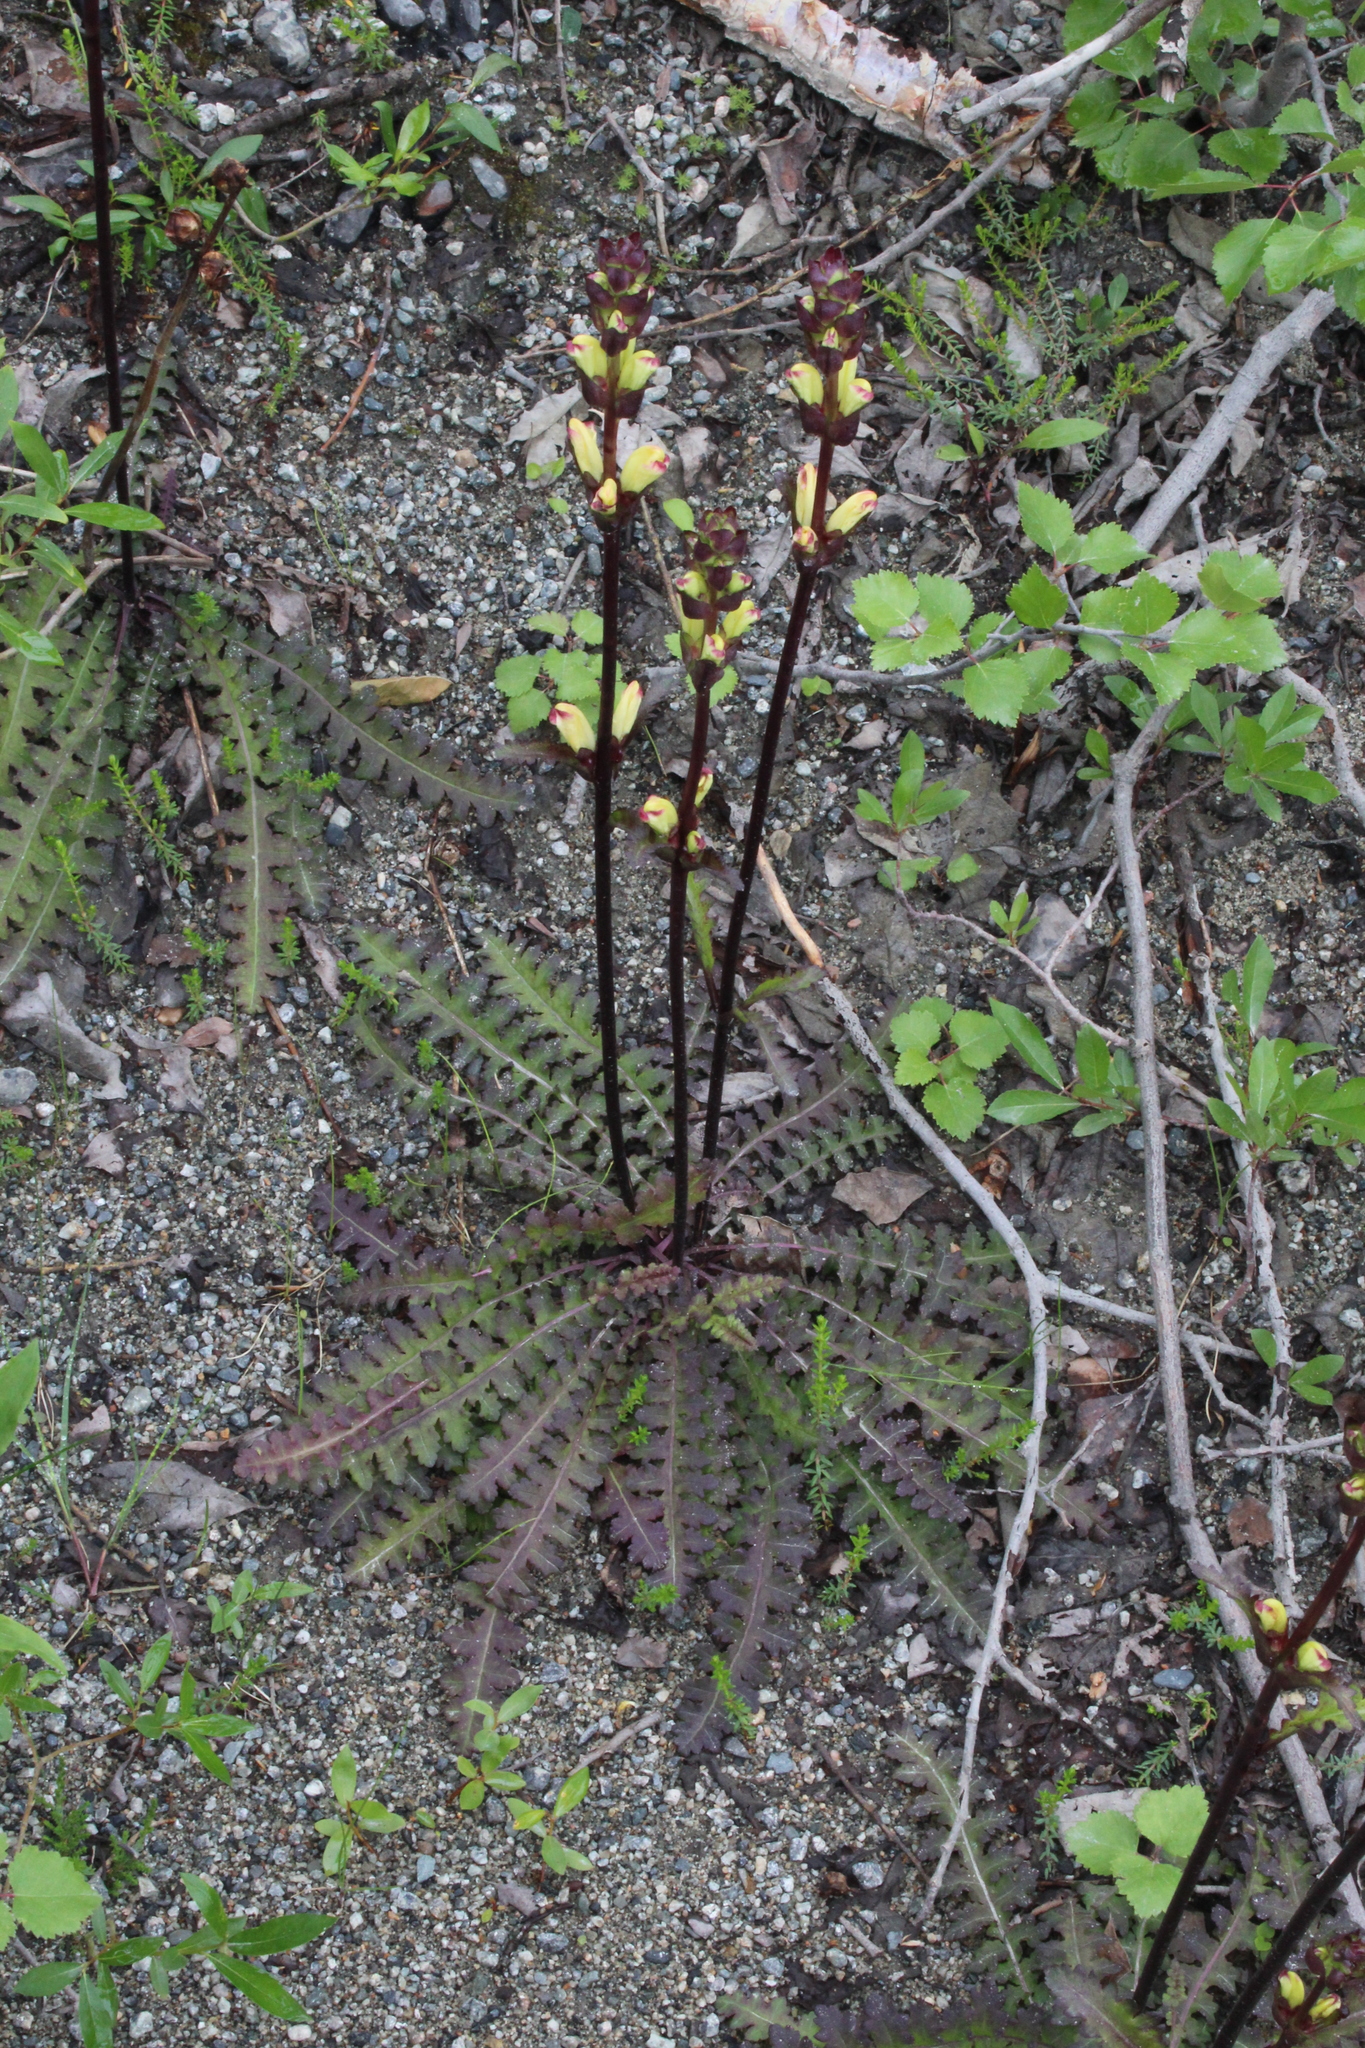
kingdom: Plantae
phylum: Tracheophyta
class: Magnoliopsida
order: Lamiales
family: Orobanchaceae
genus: Pedicularis
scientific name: Pedicularis sceptrum-carolinum
